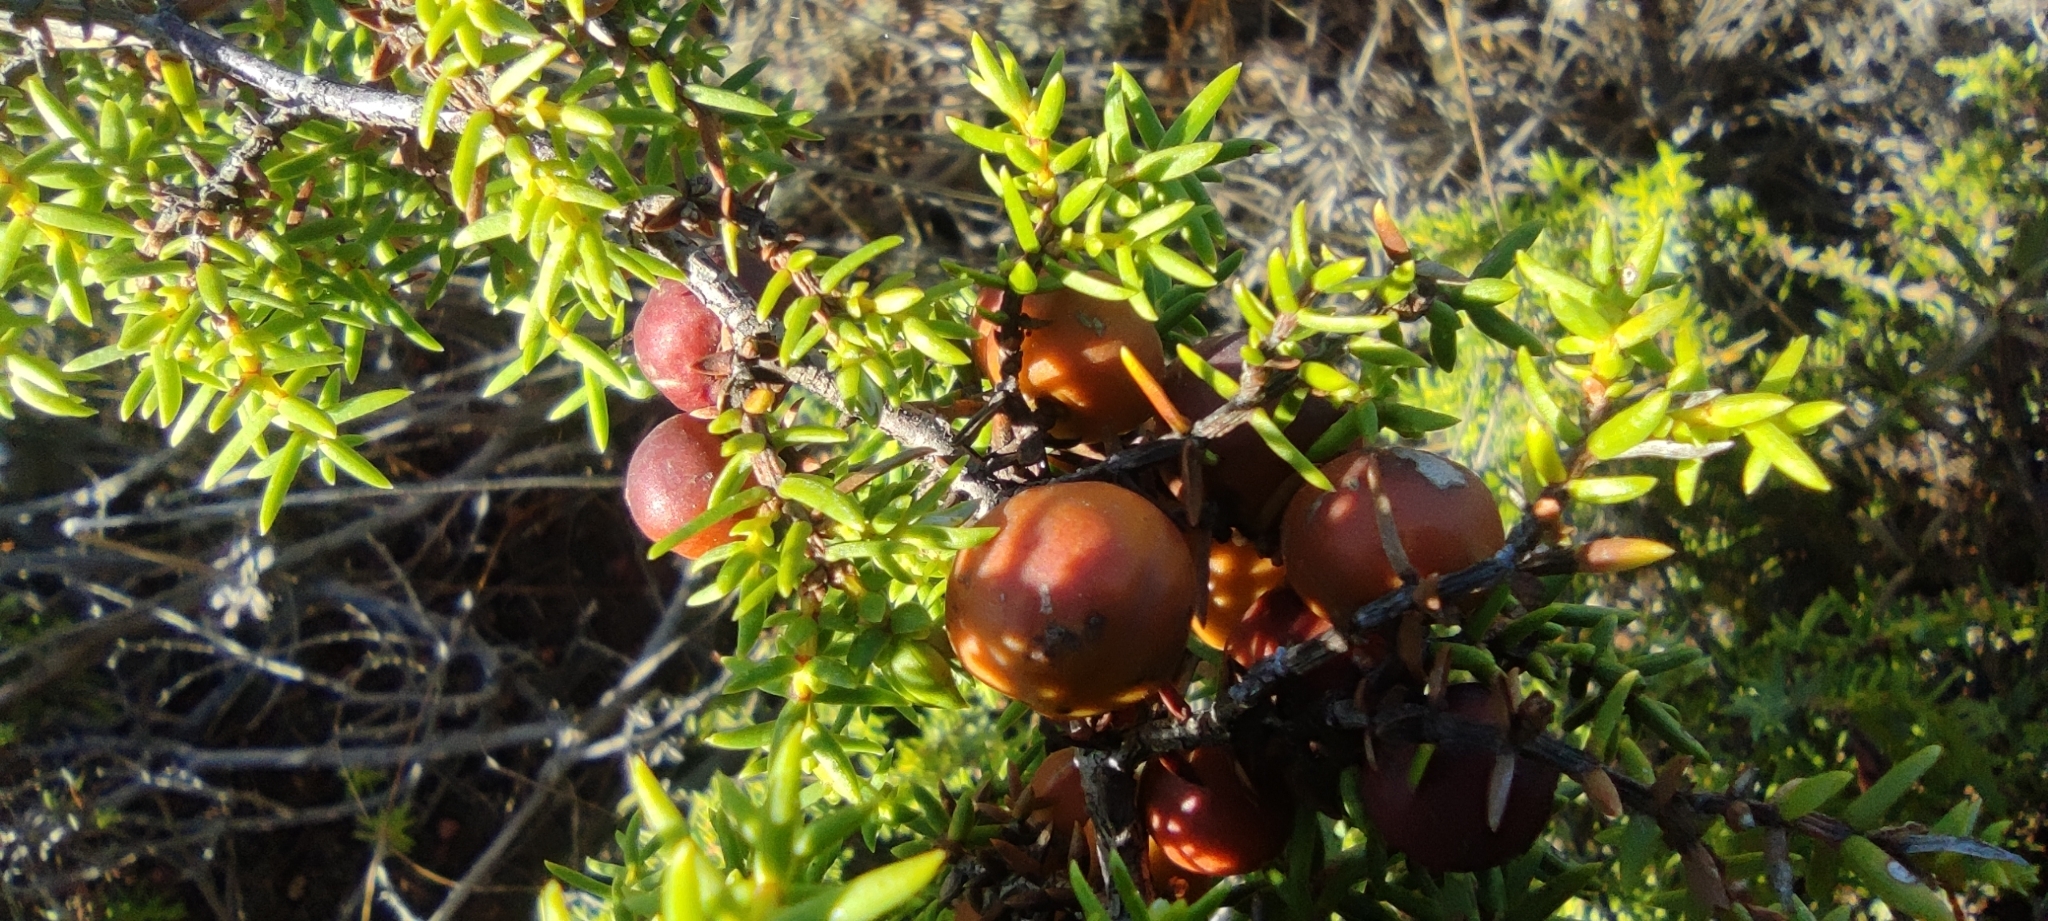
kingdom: Plantae
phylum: Tracheophyta
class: Pinopsida
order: Pinales
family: Cupressaceae
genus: Juniperus
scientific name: Juniperus oxycedrus
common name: Prickly juniper
